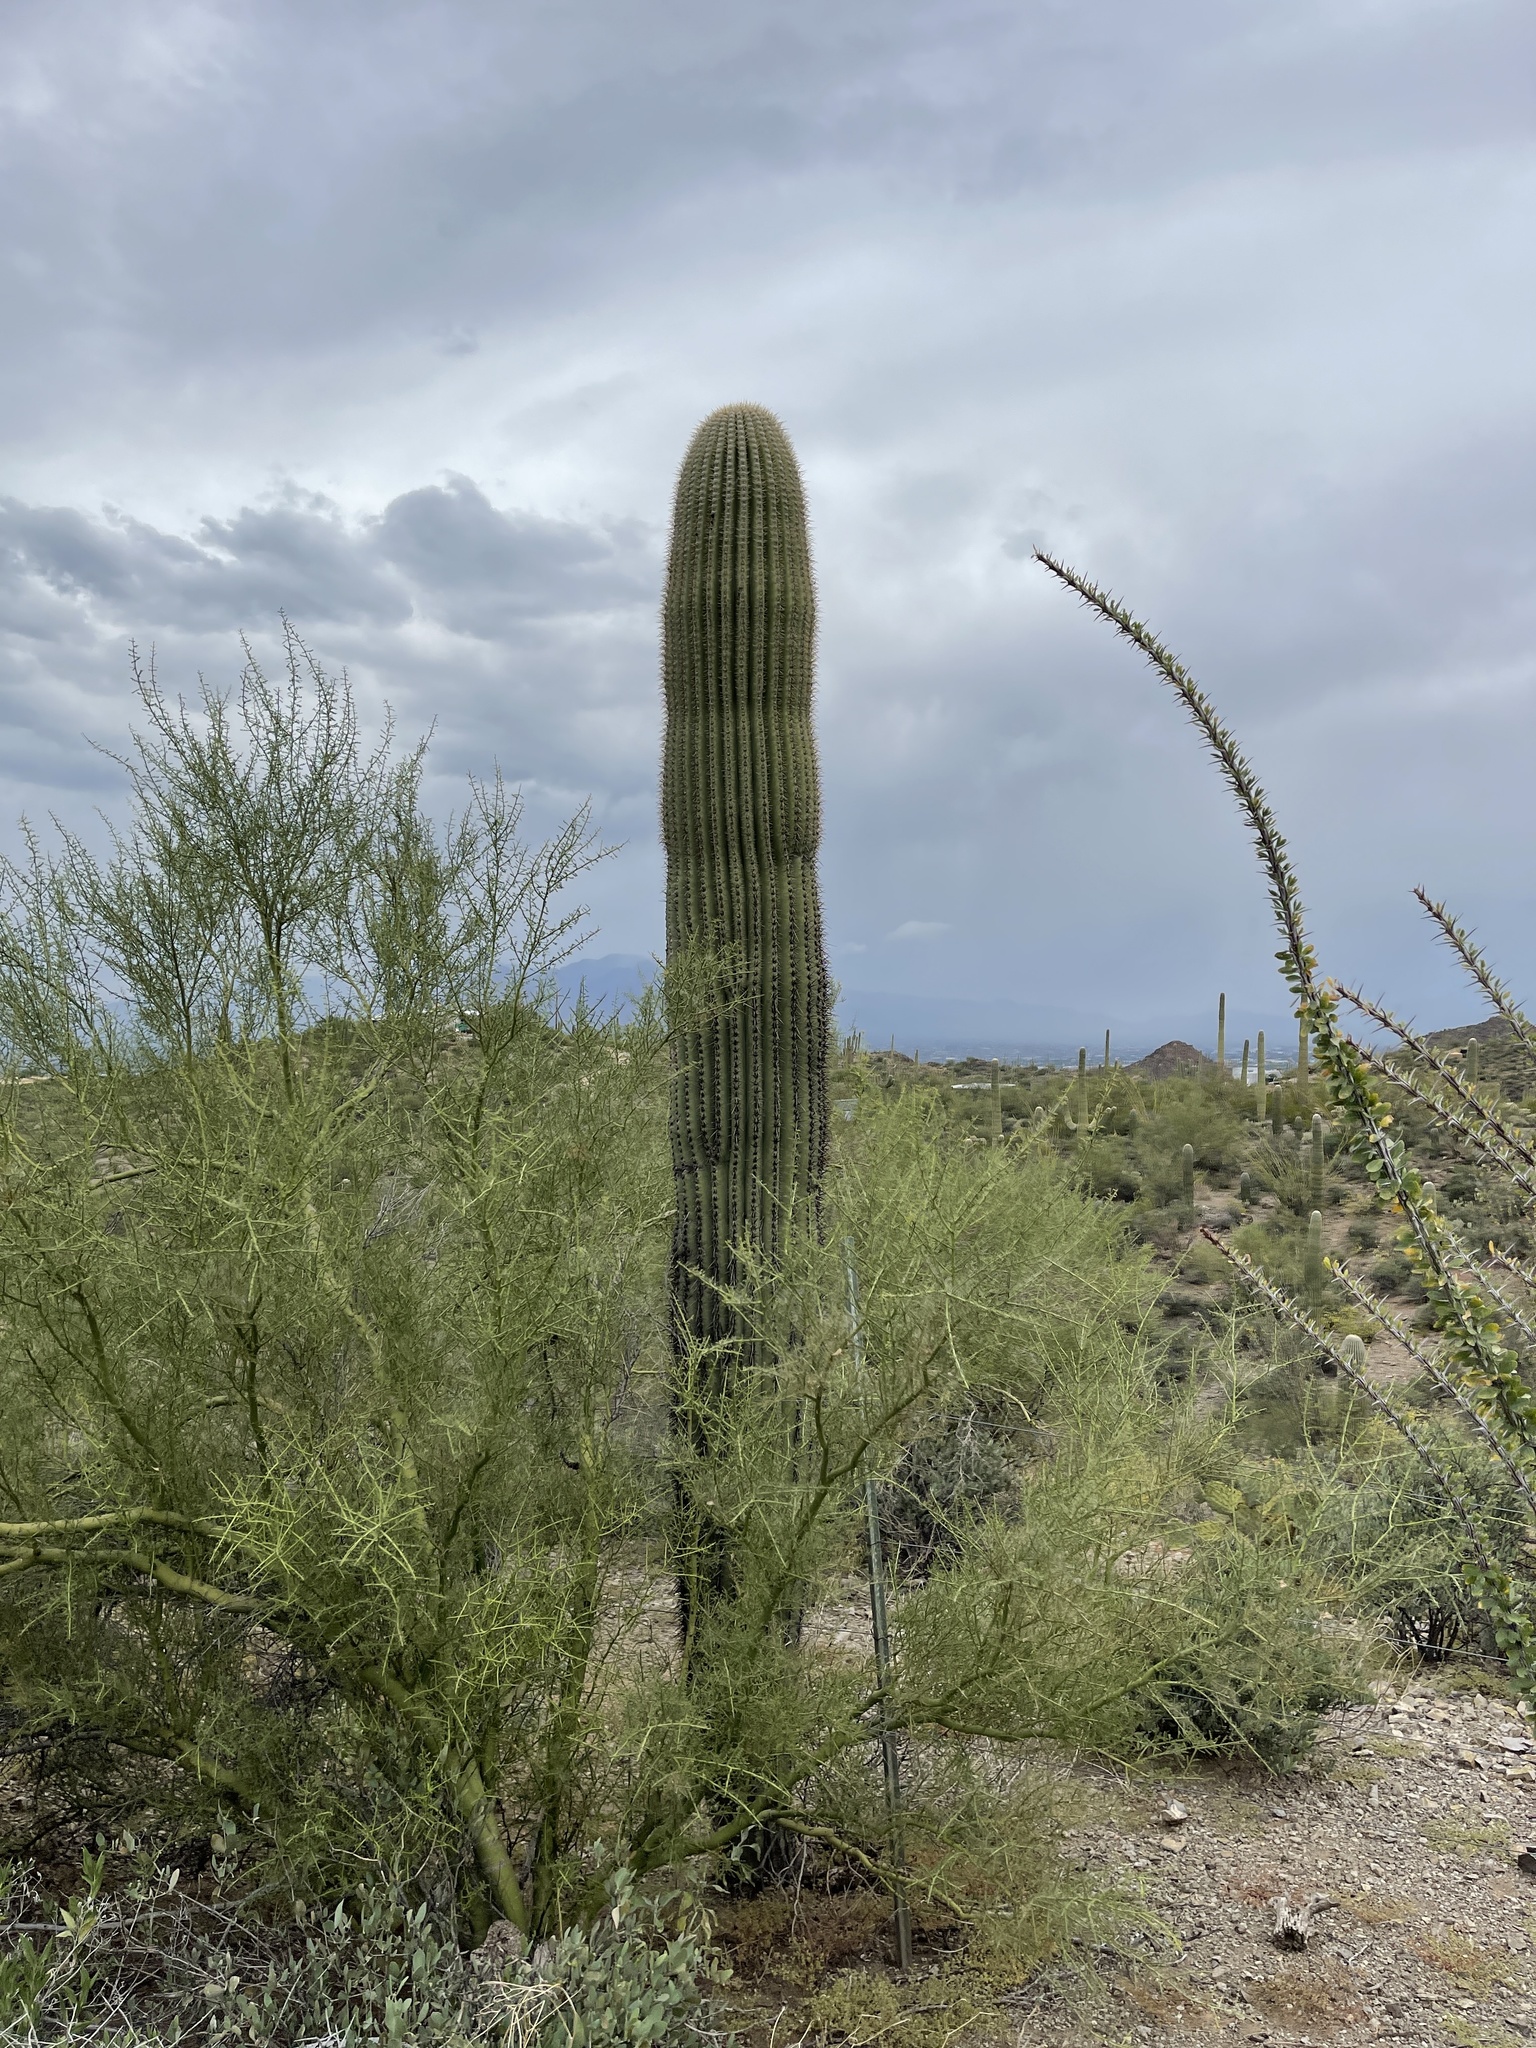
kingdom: Plantae
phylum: Tracheophyta
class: Magnoliopsida
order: Caryophyllales
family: Cactaceae
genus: Carnegiea
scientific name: Carnegiea gigantea
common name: Saguaro
